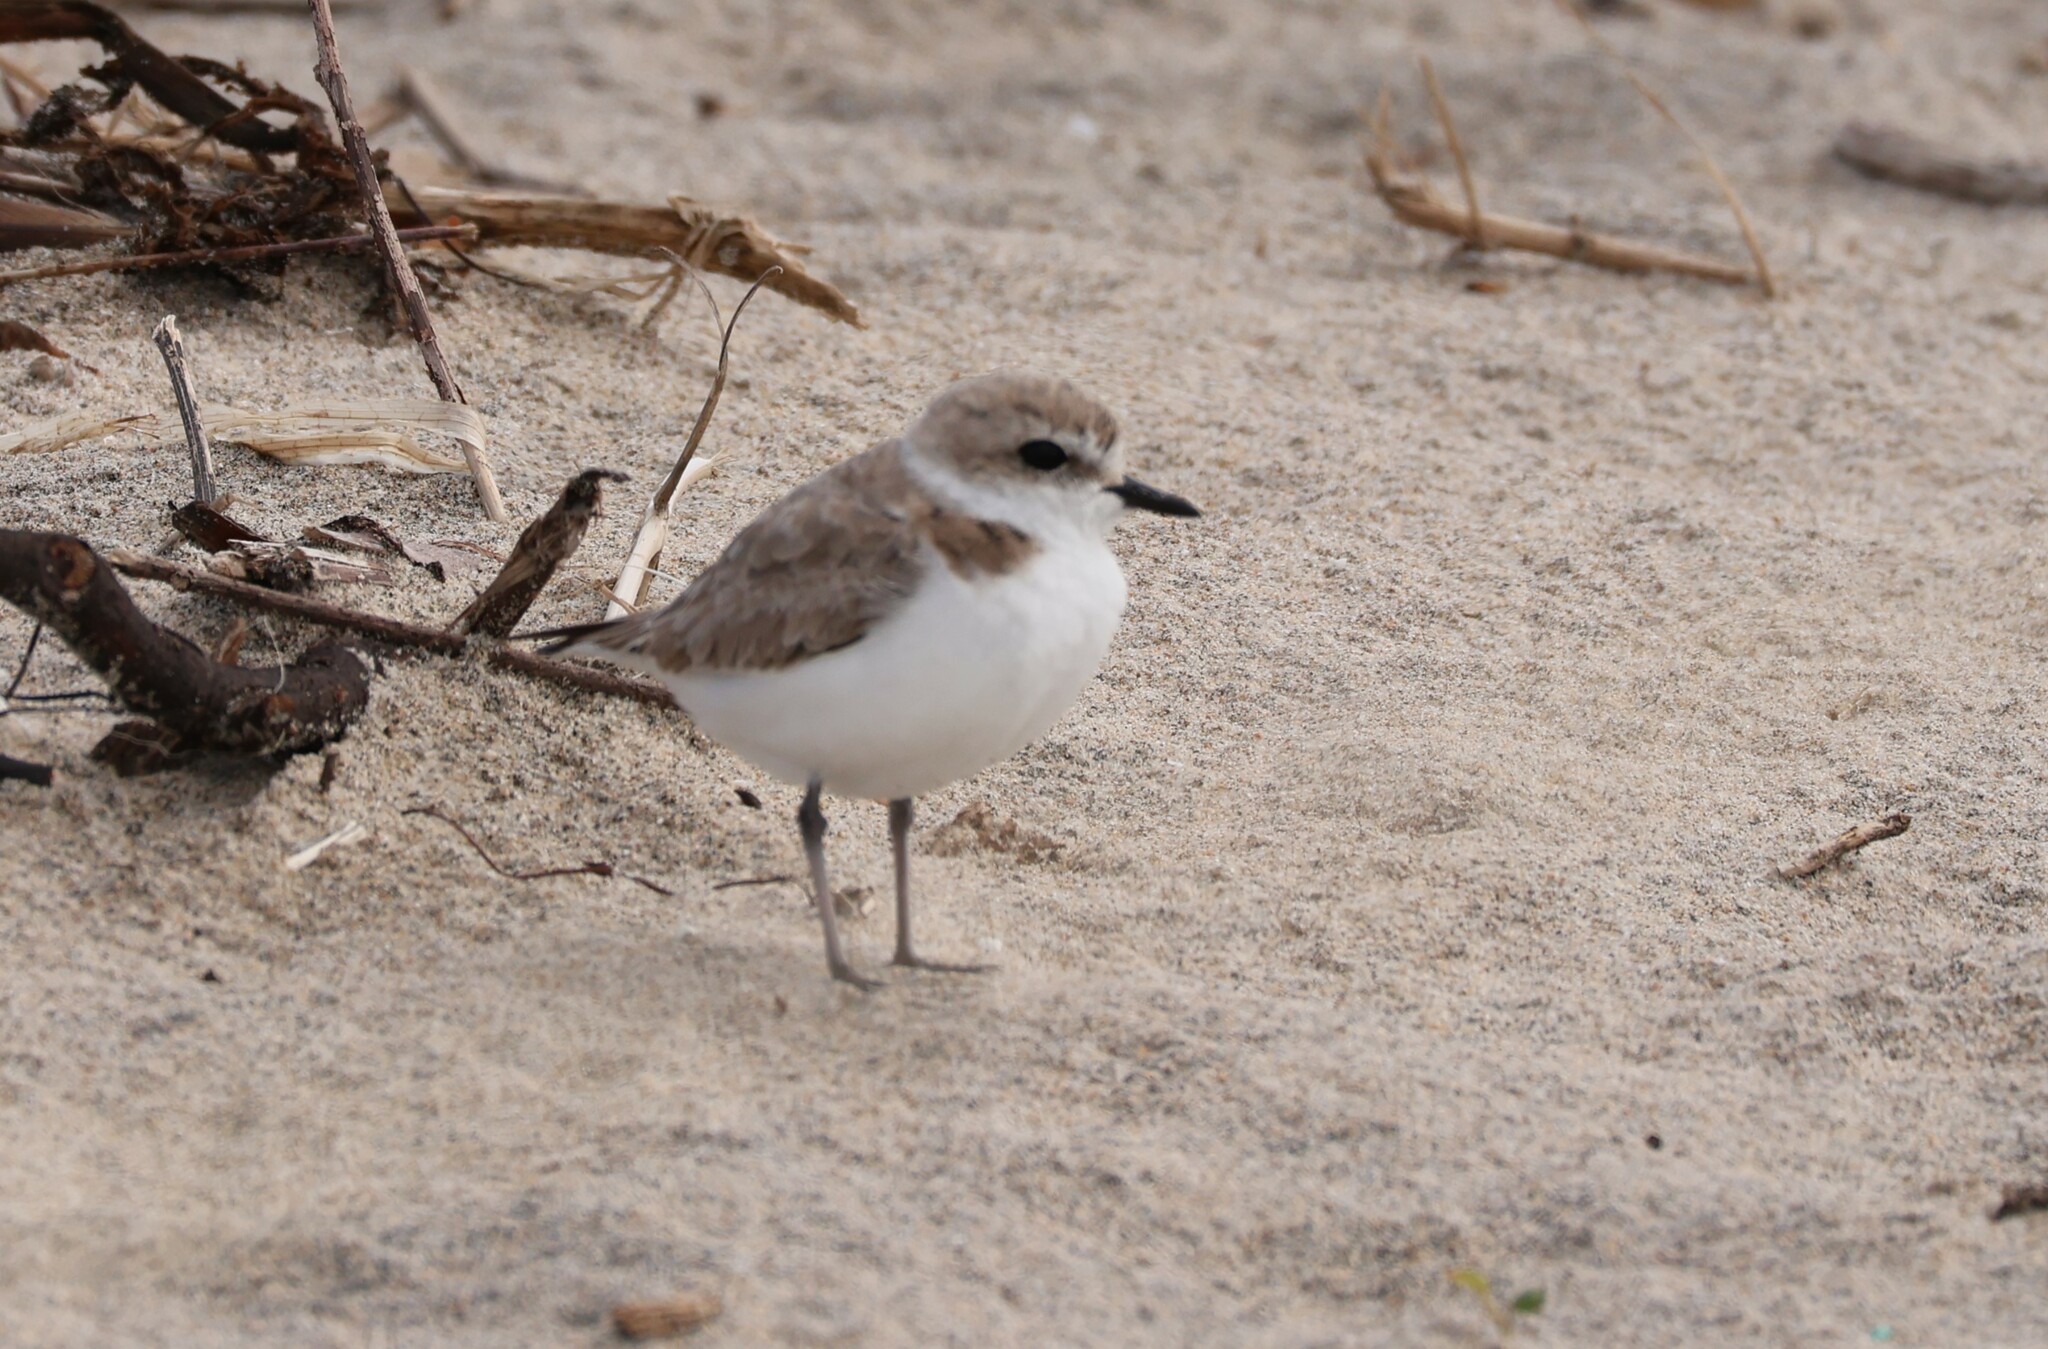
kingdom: Animalia
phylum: Chordata
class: Aves
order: Charadriiformes
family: Charadriidae
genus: Anarhynchus
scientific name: Anarhynchus
